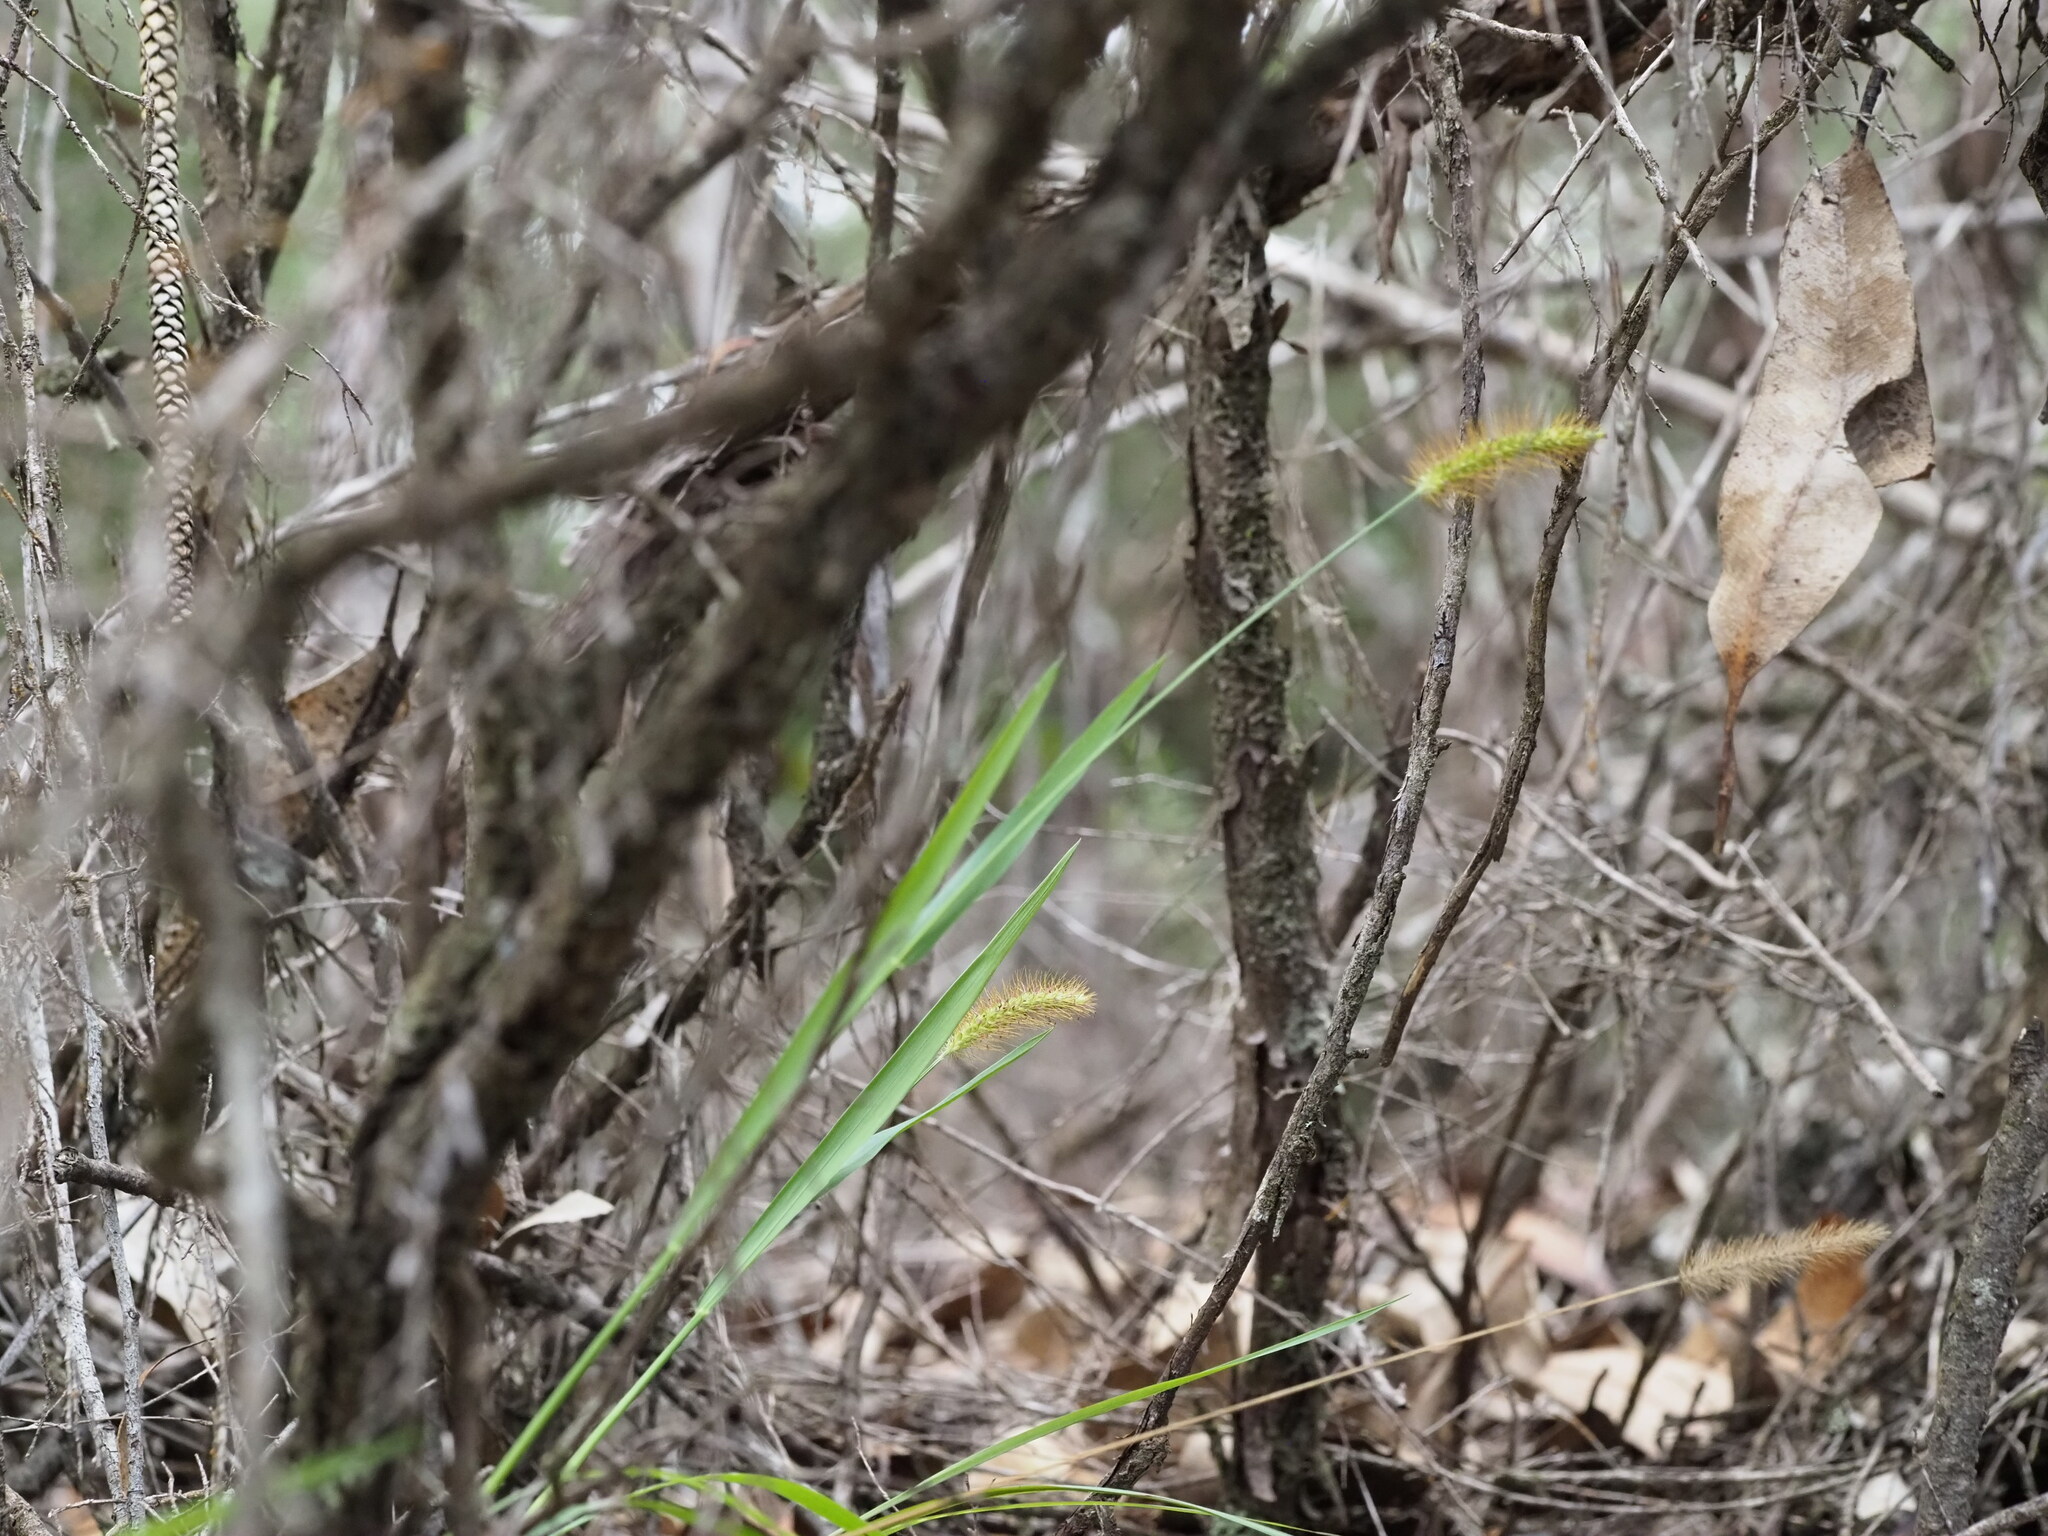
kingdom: Plantae
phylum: Tracheophyta
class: Liliopsida
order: Poales
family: Poaceae
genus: Setaria
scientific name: Setaria parviflora
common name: Knotroot bristle-grass
